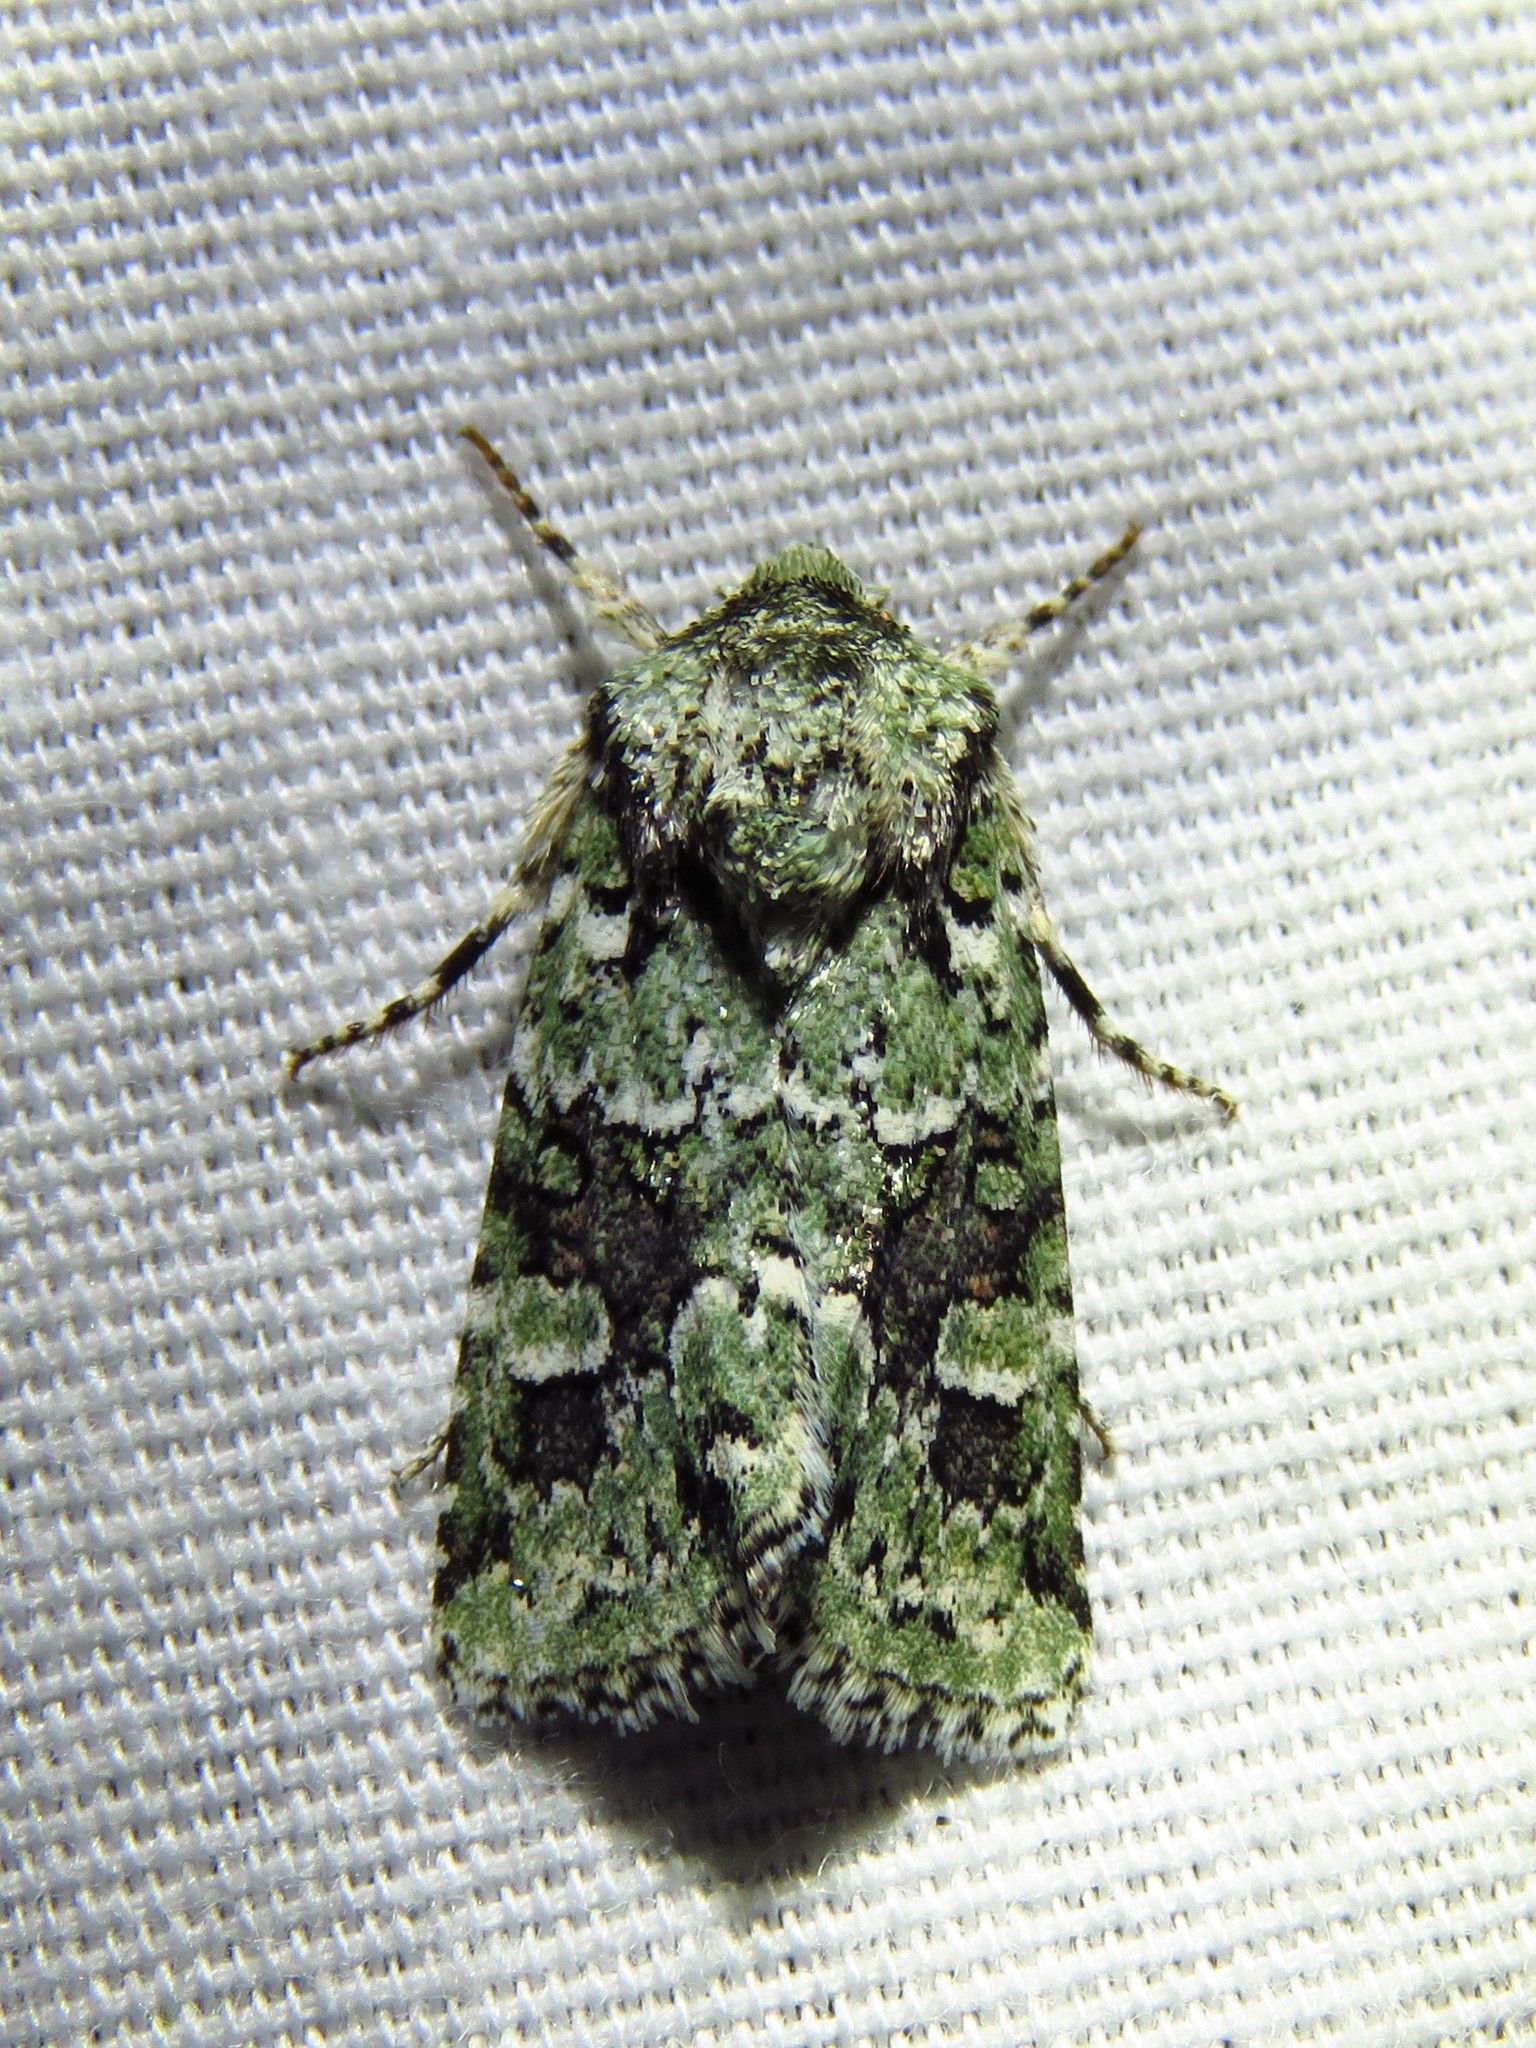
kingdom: Animalia
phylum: Arthropoda
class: Insecta
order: Lepidoptera
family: Noctuidae
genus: Lacinipolia
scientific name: Lacinipolia laudabilis
